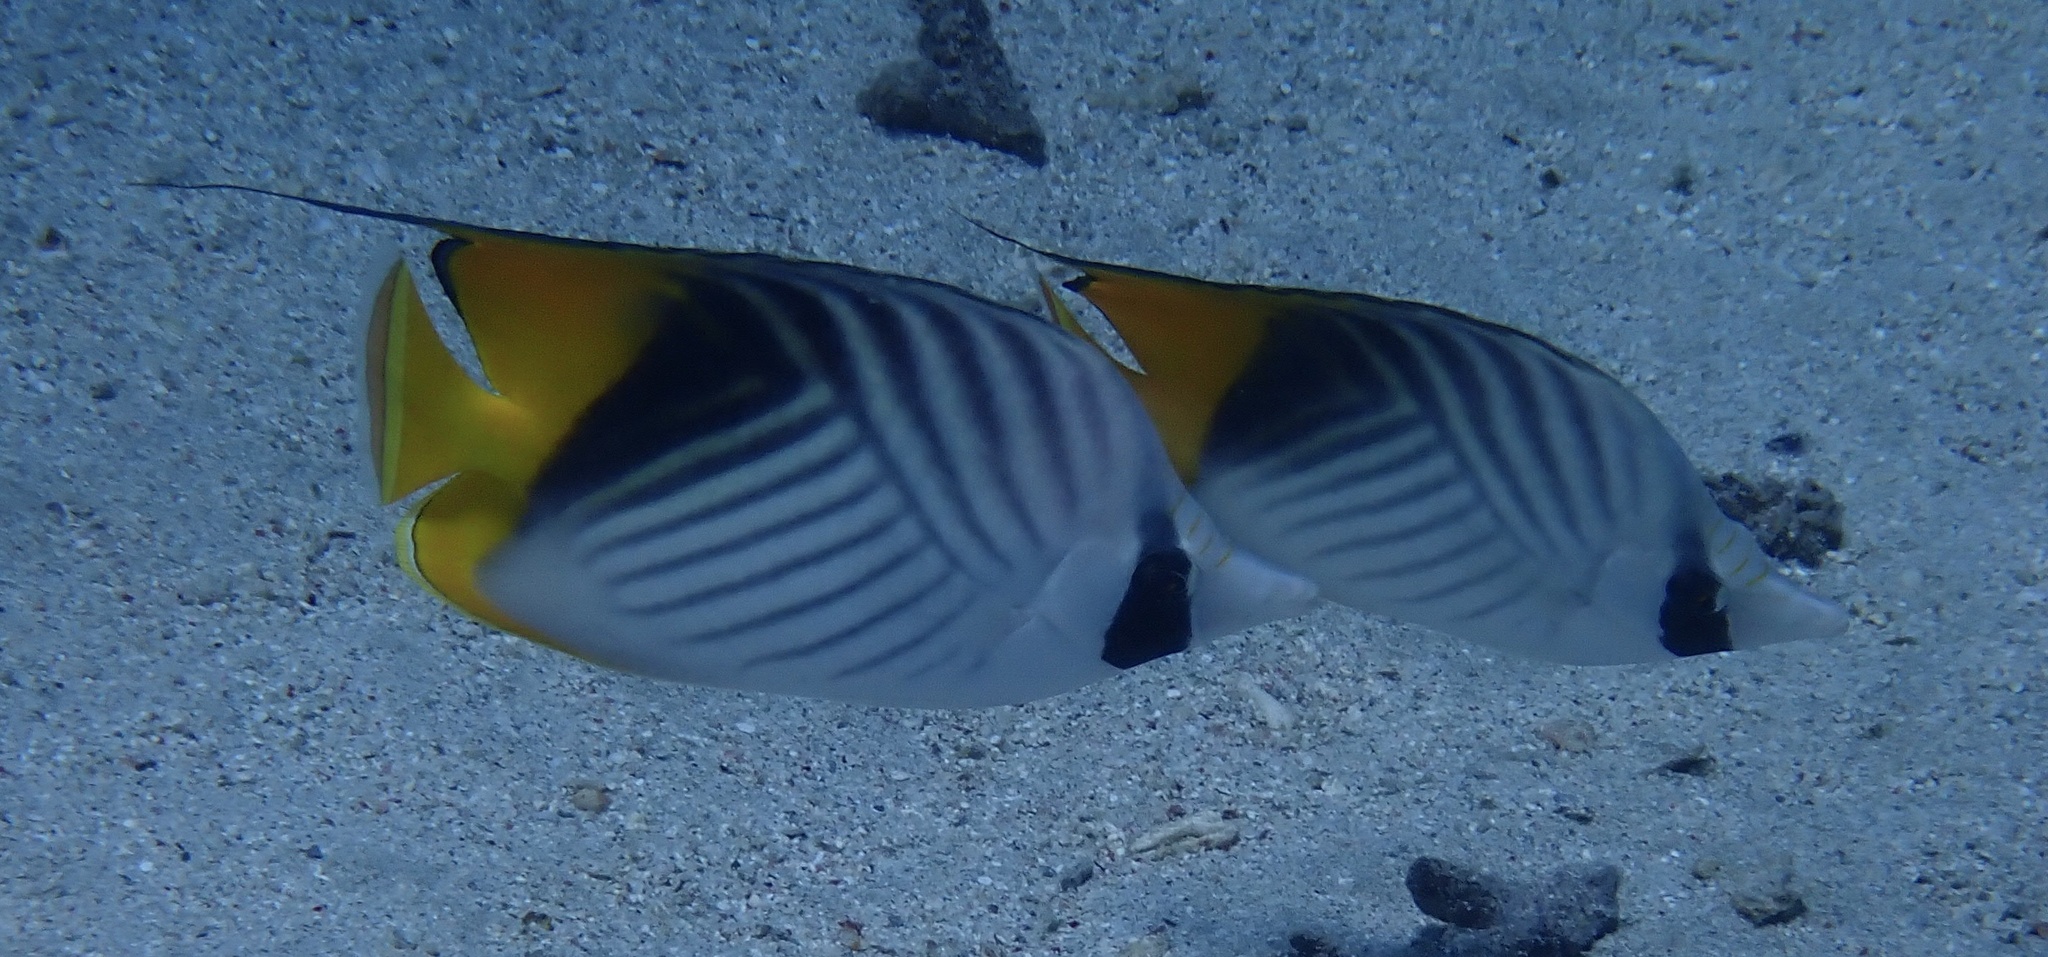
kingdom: Animalia
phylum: Chordata
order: Perciformes
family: Chaetodontidae
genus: Chaetodon
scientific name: Chaetodon auriga
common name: Threadfin butterflyfish
